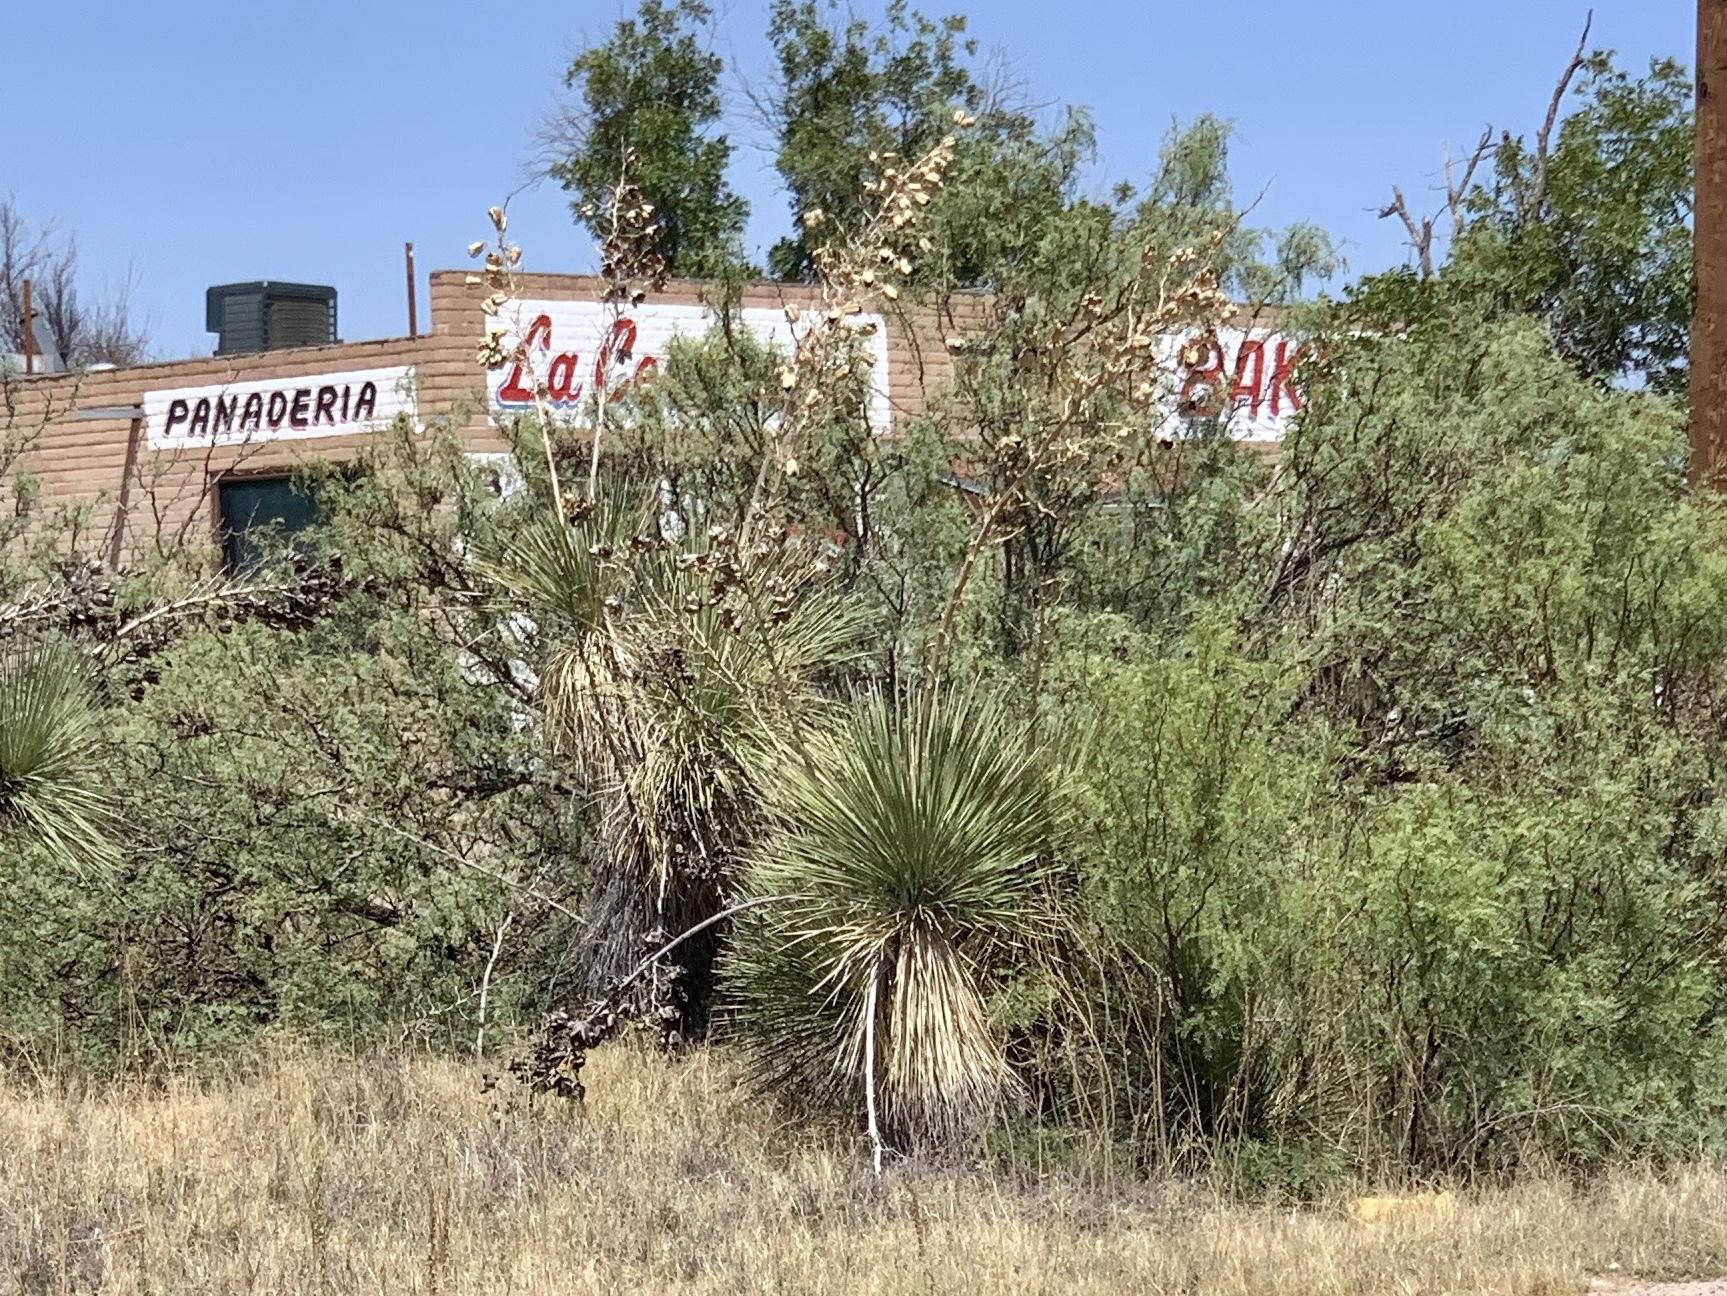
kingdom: Plantae
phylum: Tracheophyta
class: Liliopsida
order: Asparagales
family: Asparagaceae
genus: Yucca
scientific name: Yucca elata
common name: Palmella
